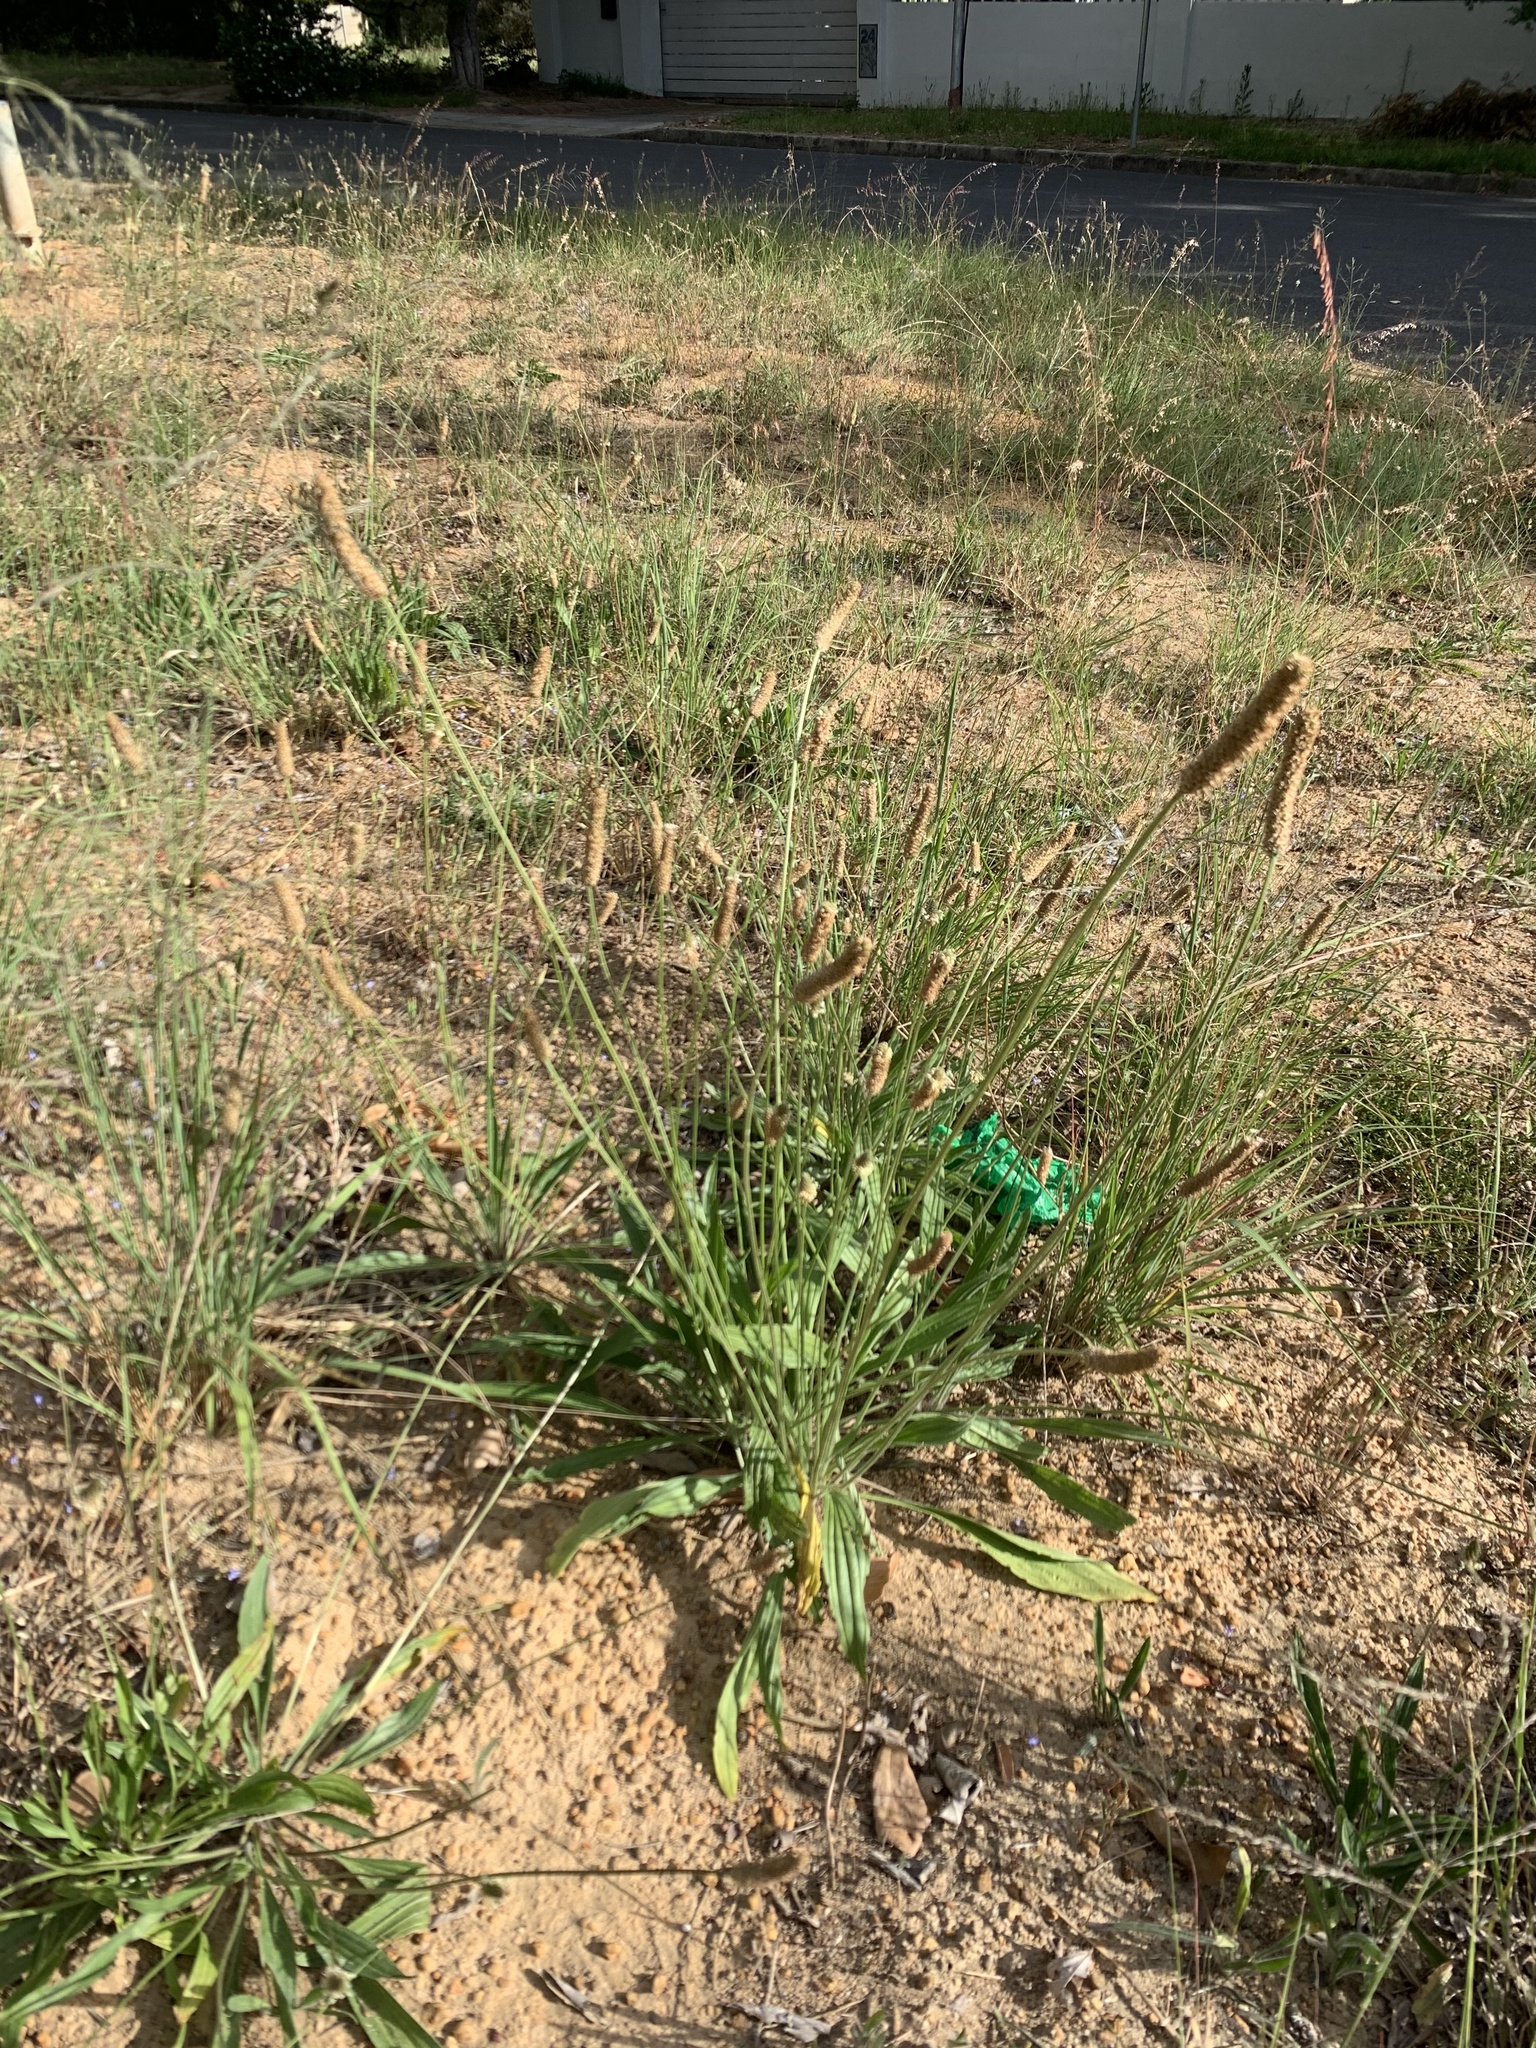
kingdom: Plantae
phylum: Tracheophyta
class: Magnoliopsida
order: Lamiales
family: Plantaginaceae
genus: Plantago
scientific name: Plantago lanceolata
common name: Ribwort plantain
